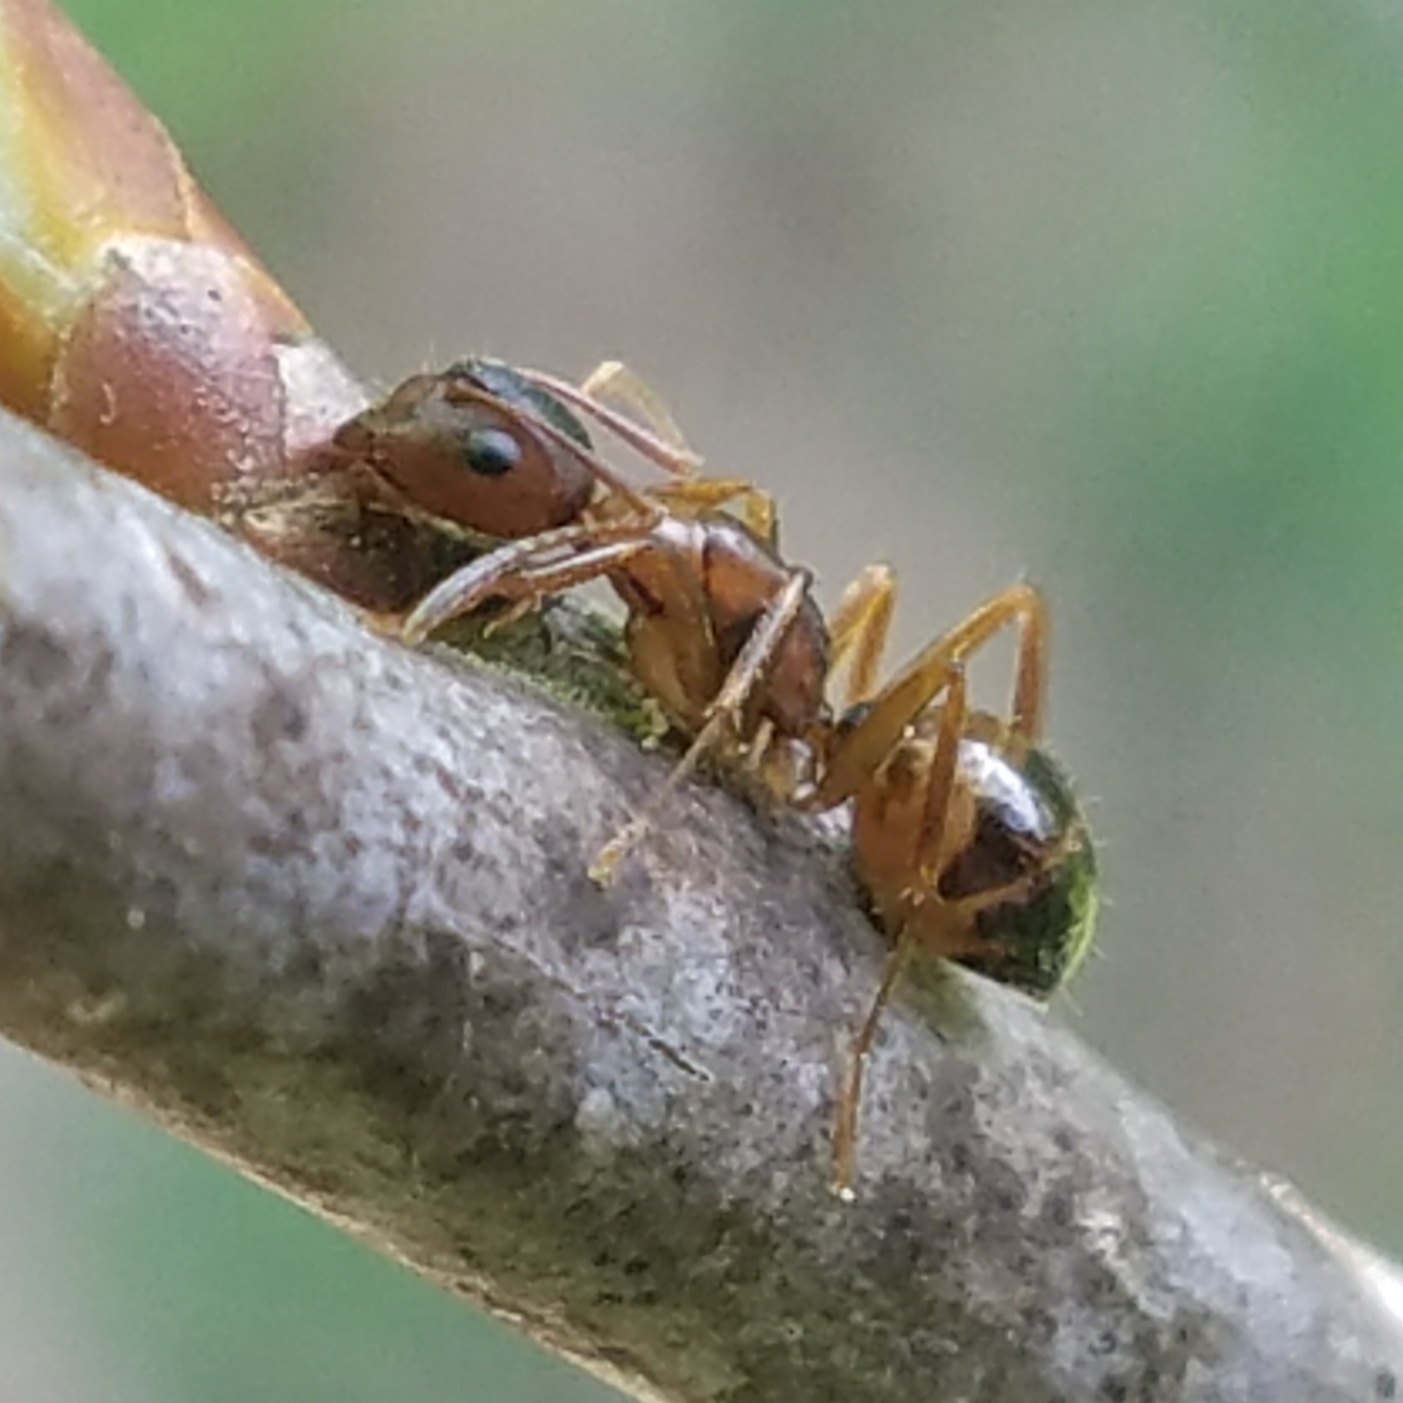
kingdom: Animalia
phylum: Arthropoda
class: Insecta
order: Hymenoptera
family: Formicidae
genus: Camponotus
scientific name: Camponotus subbarbatus
